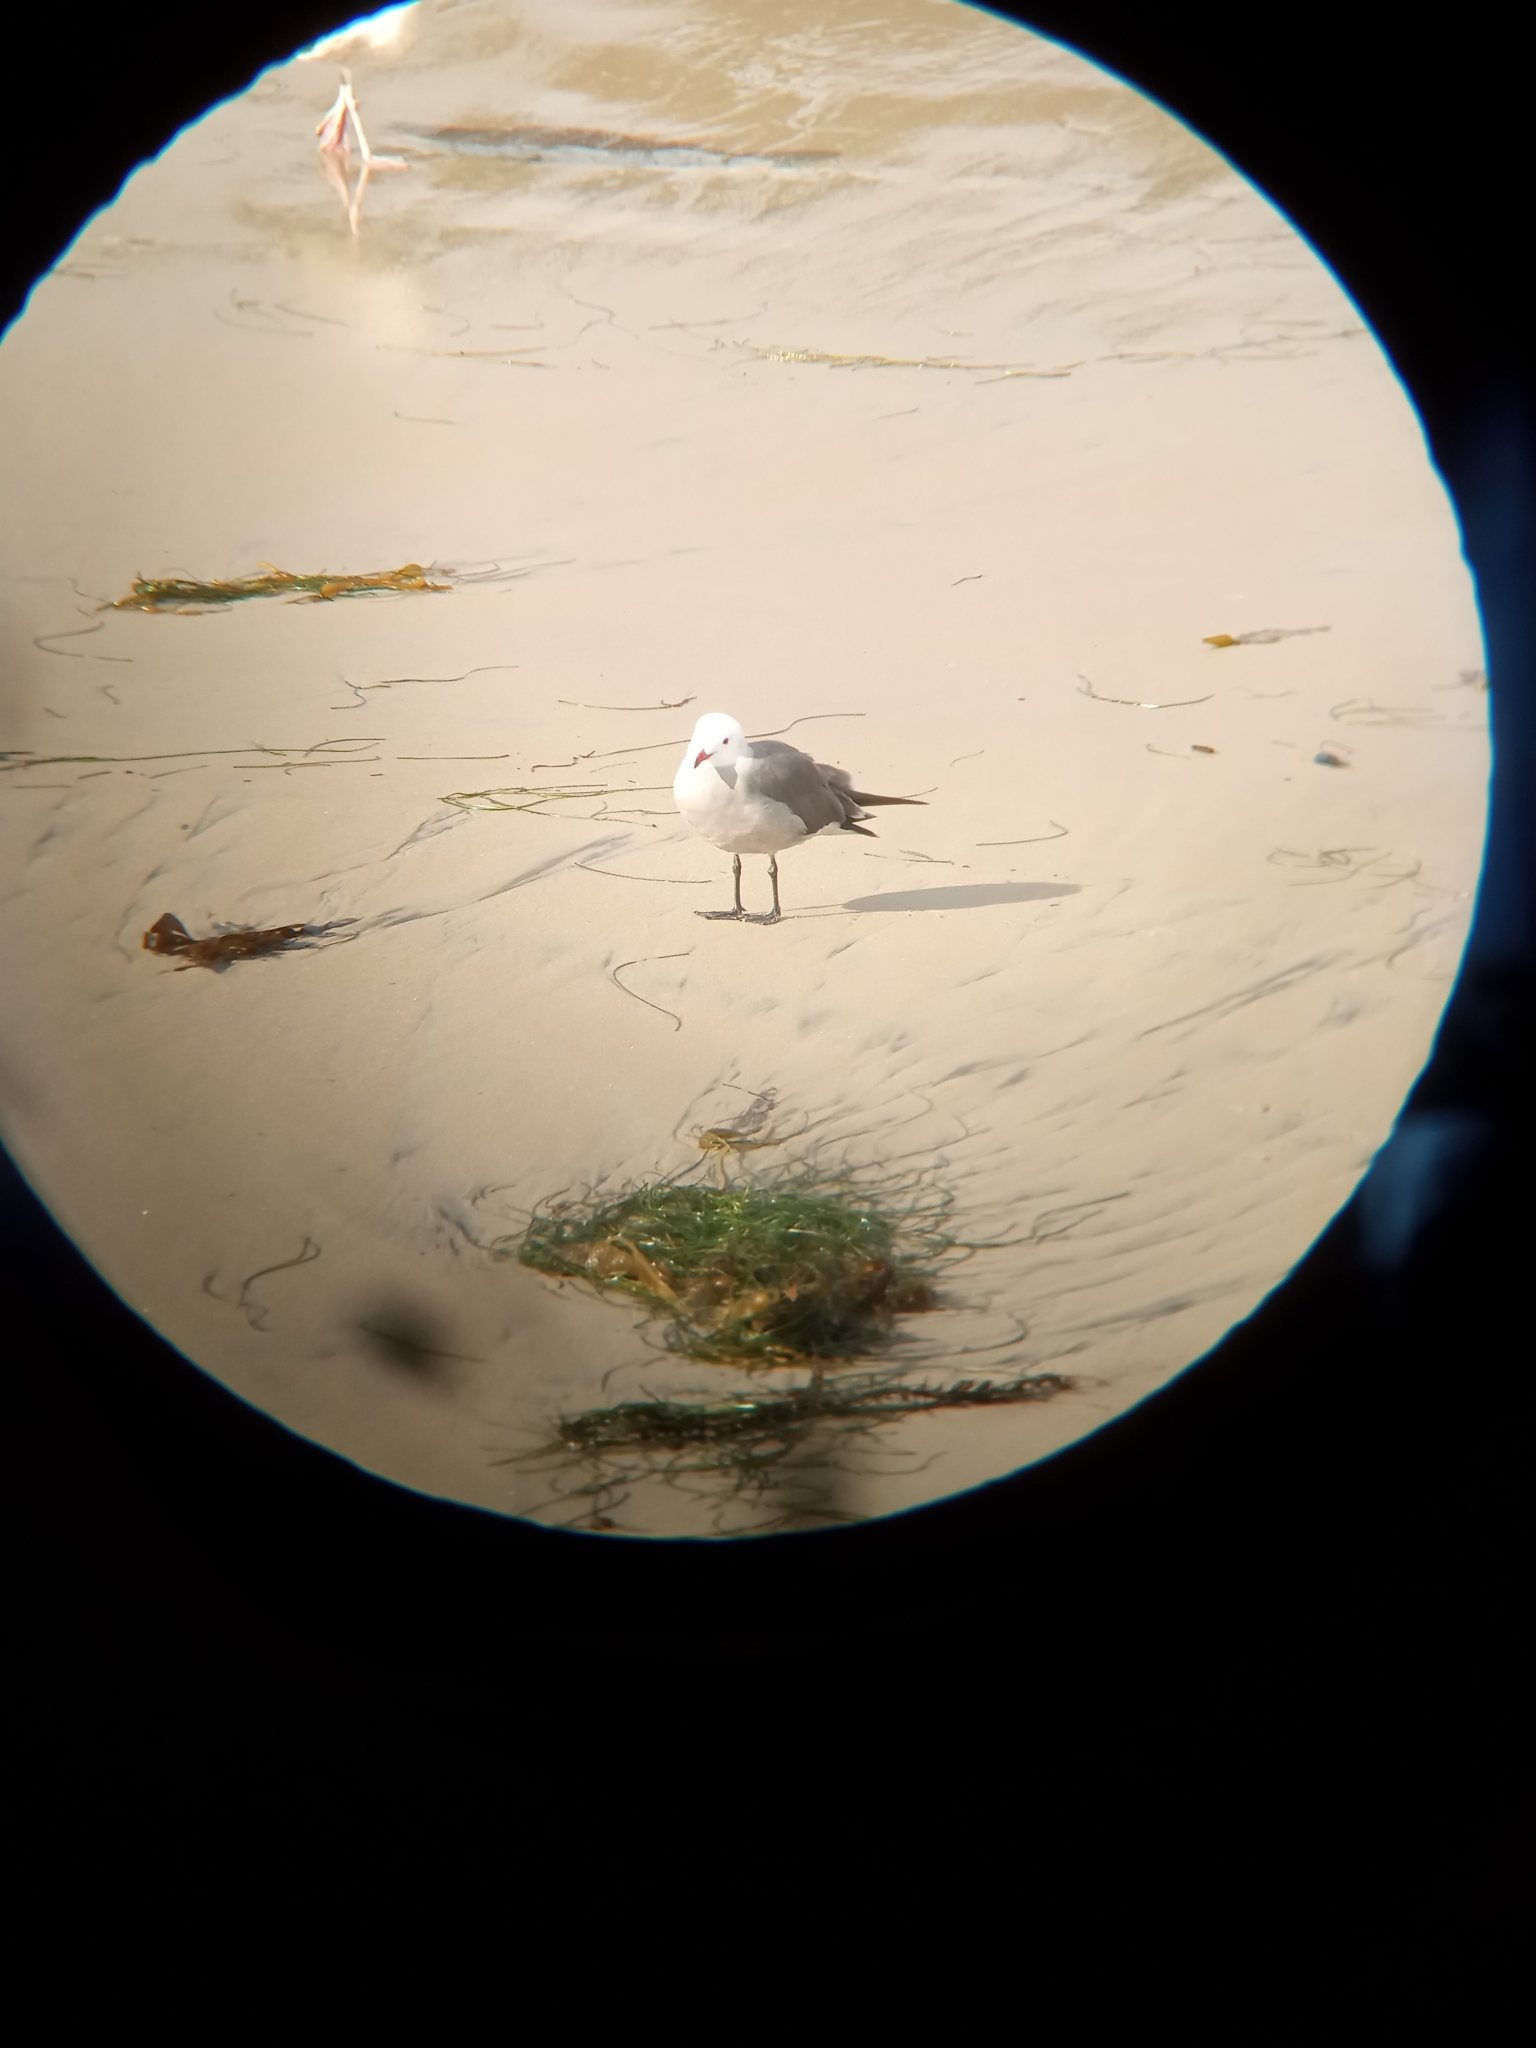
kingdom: Animalia
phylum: Chordata
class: Aves
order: Charadriiformes
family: Laridae
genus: Larus
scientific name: Larus heermanni
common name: Heermann's gull
